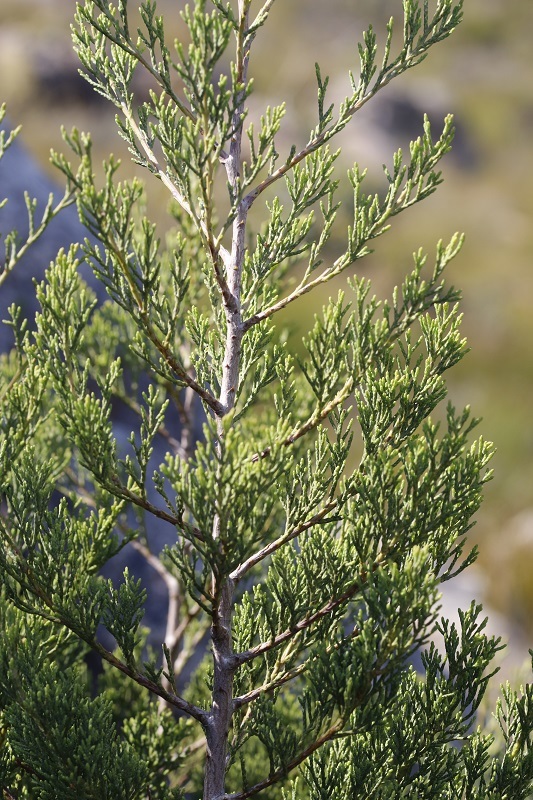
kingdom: Plantae
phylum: Tracheophyta
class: Pinopsida
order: Pinales
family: Cupressaceae
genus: Widdringtonia
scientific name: Widdringtonia nodiflora
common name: Cape cypress
